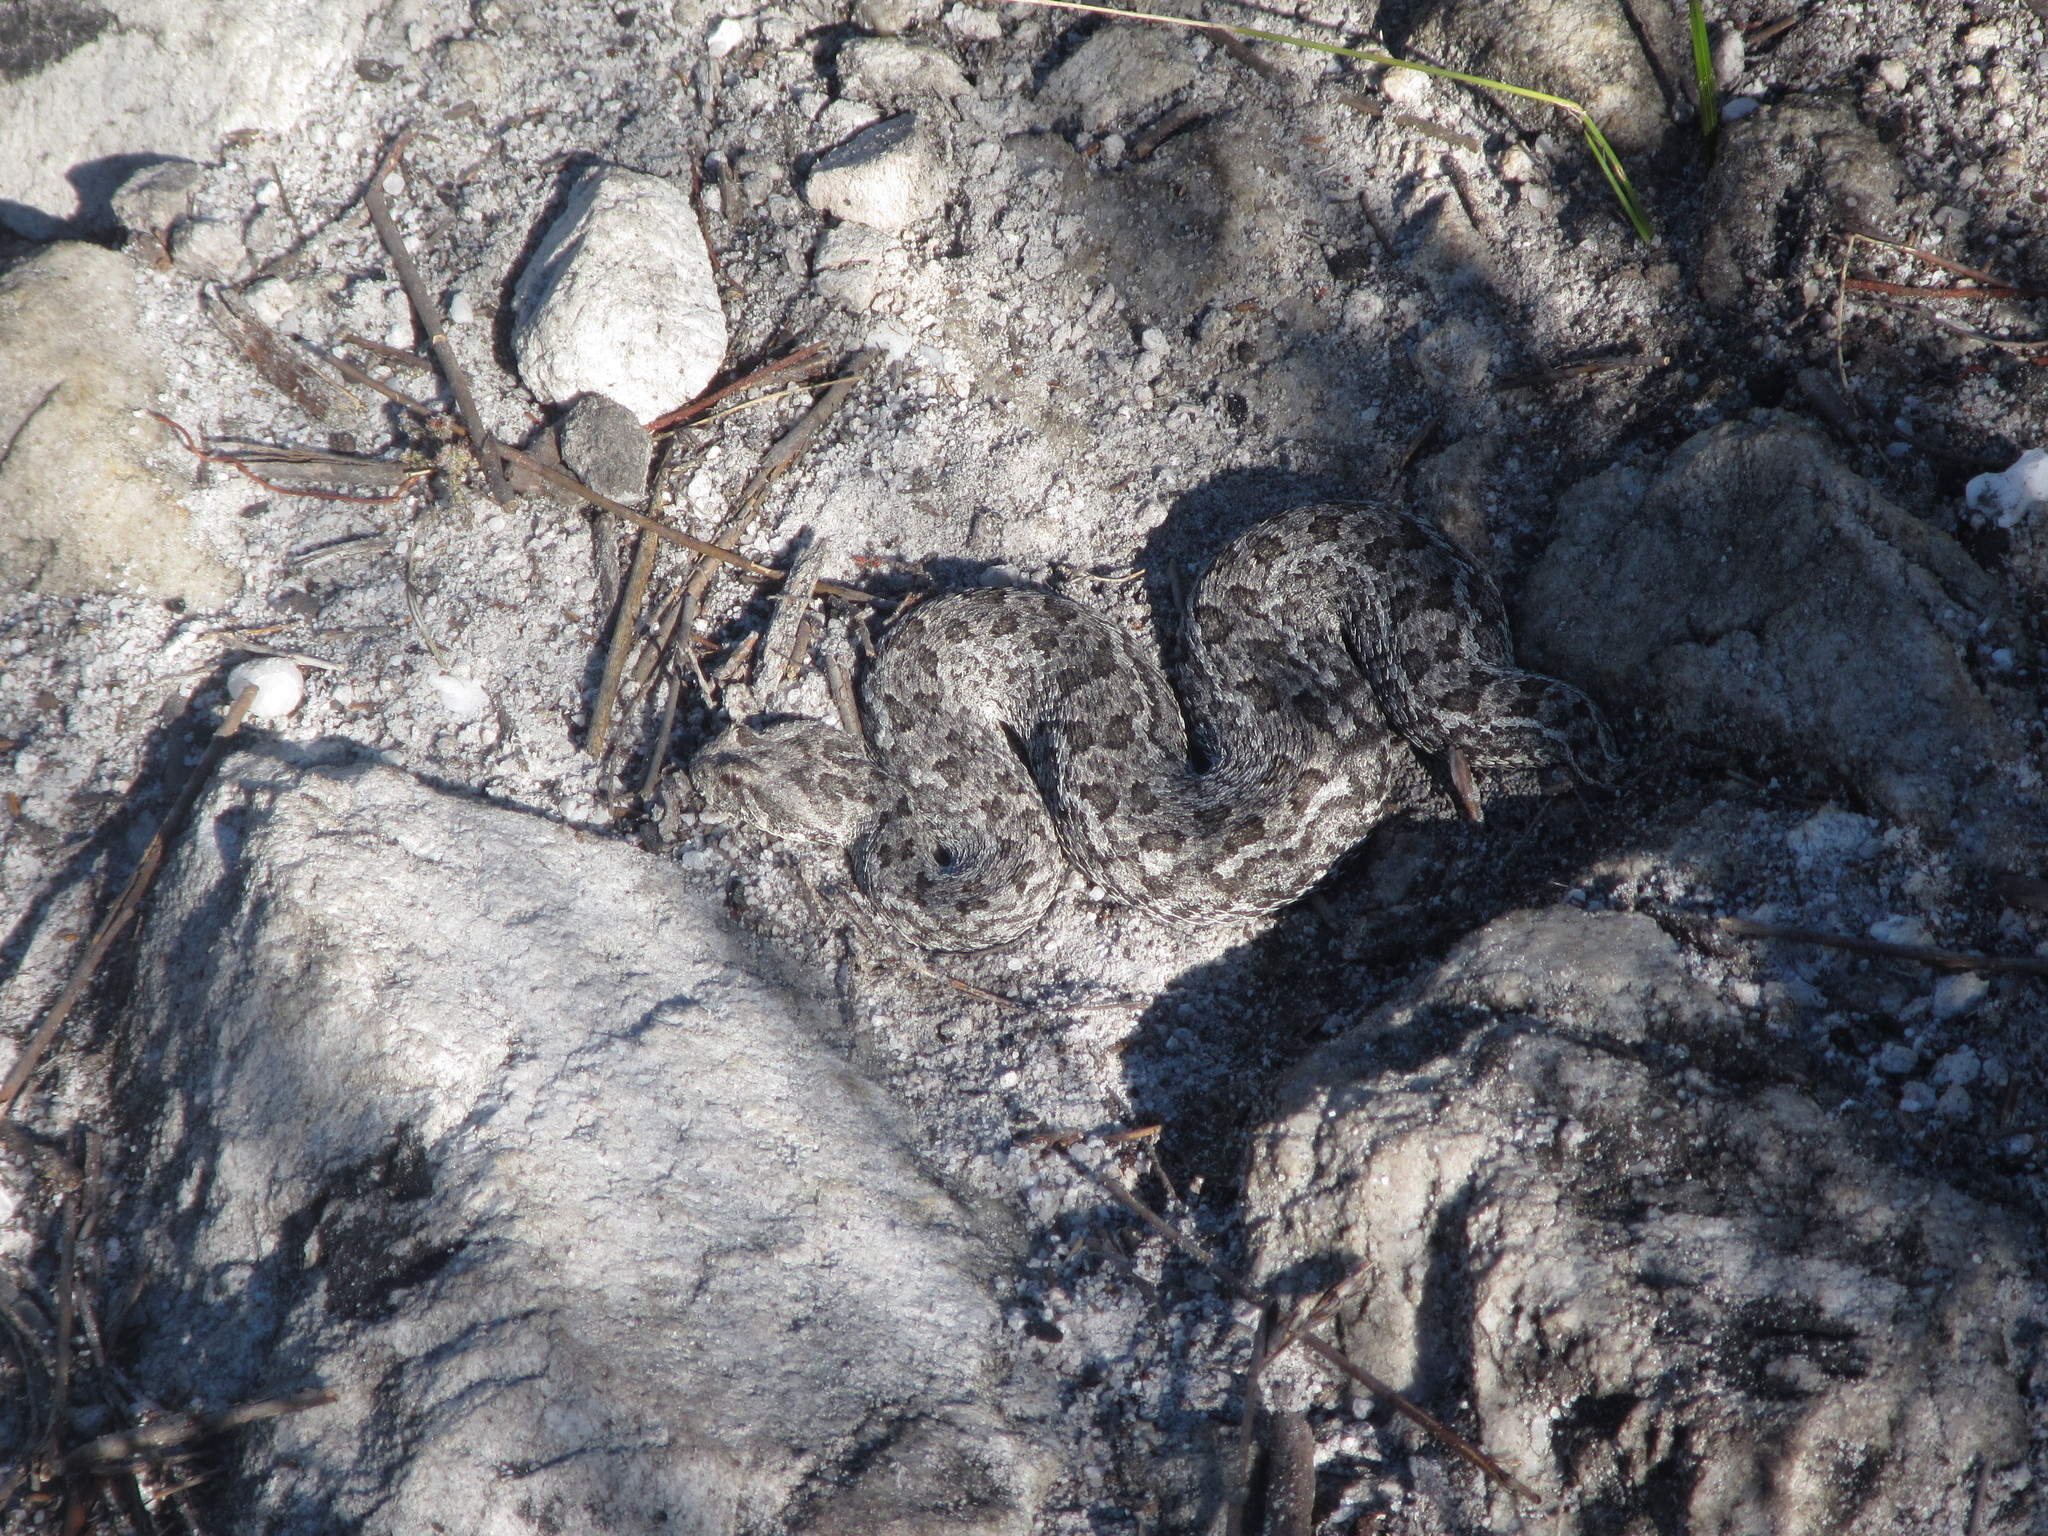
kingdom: Animalia
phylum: Chordata
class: Squamata
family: Viperidae
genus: Bitis
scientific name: Bitis armata
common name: Southern adder
